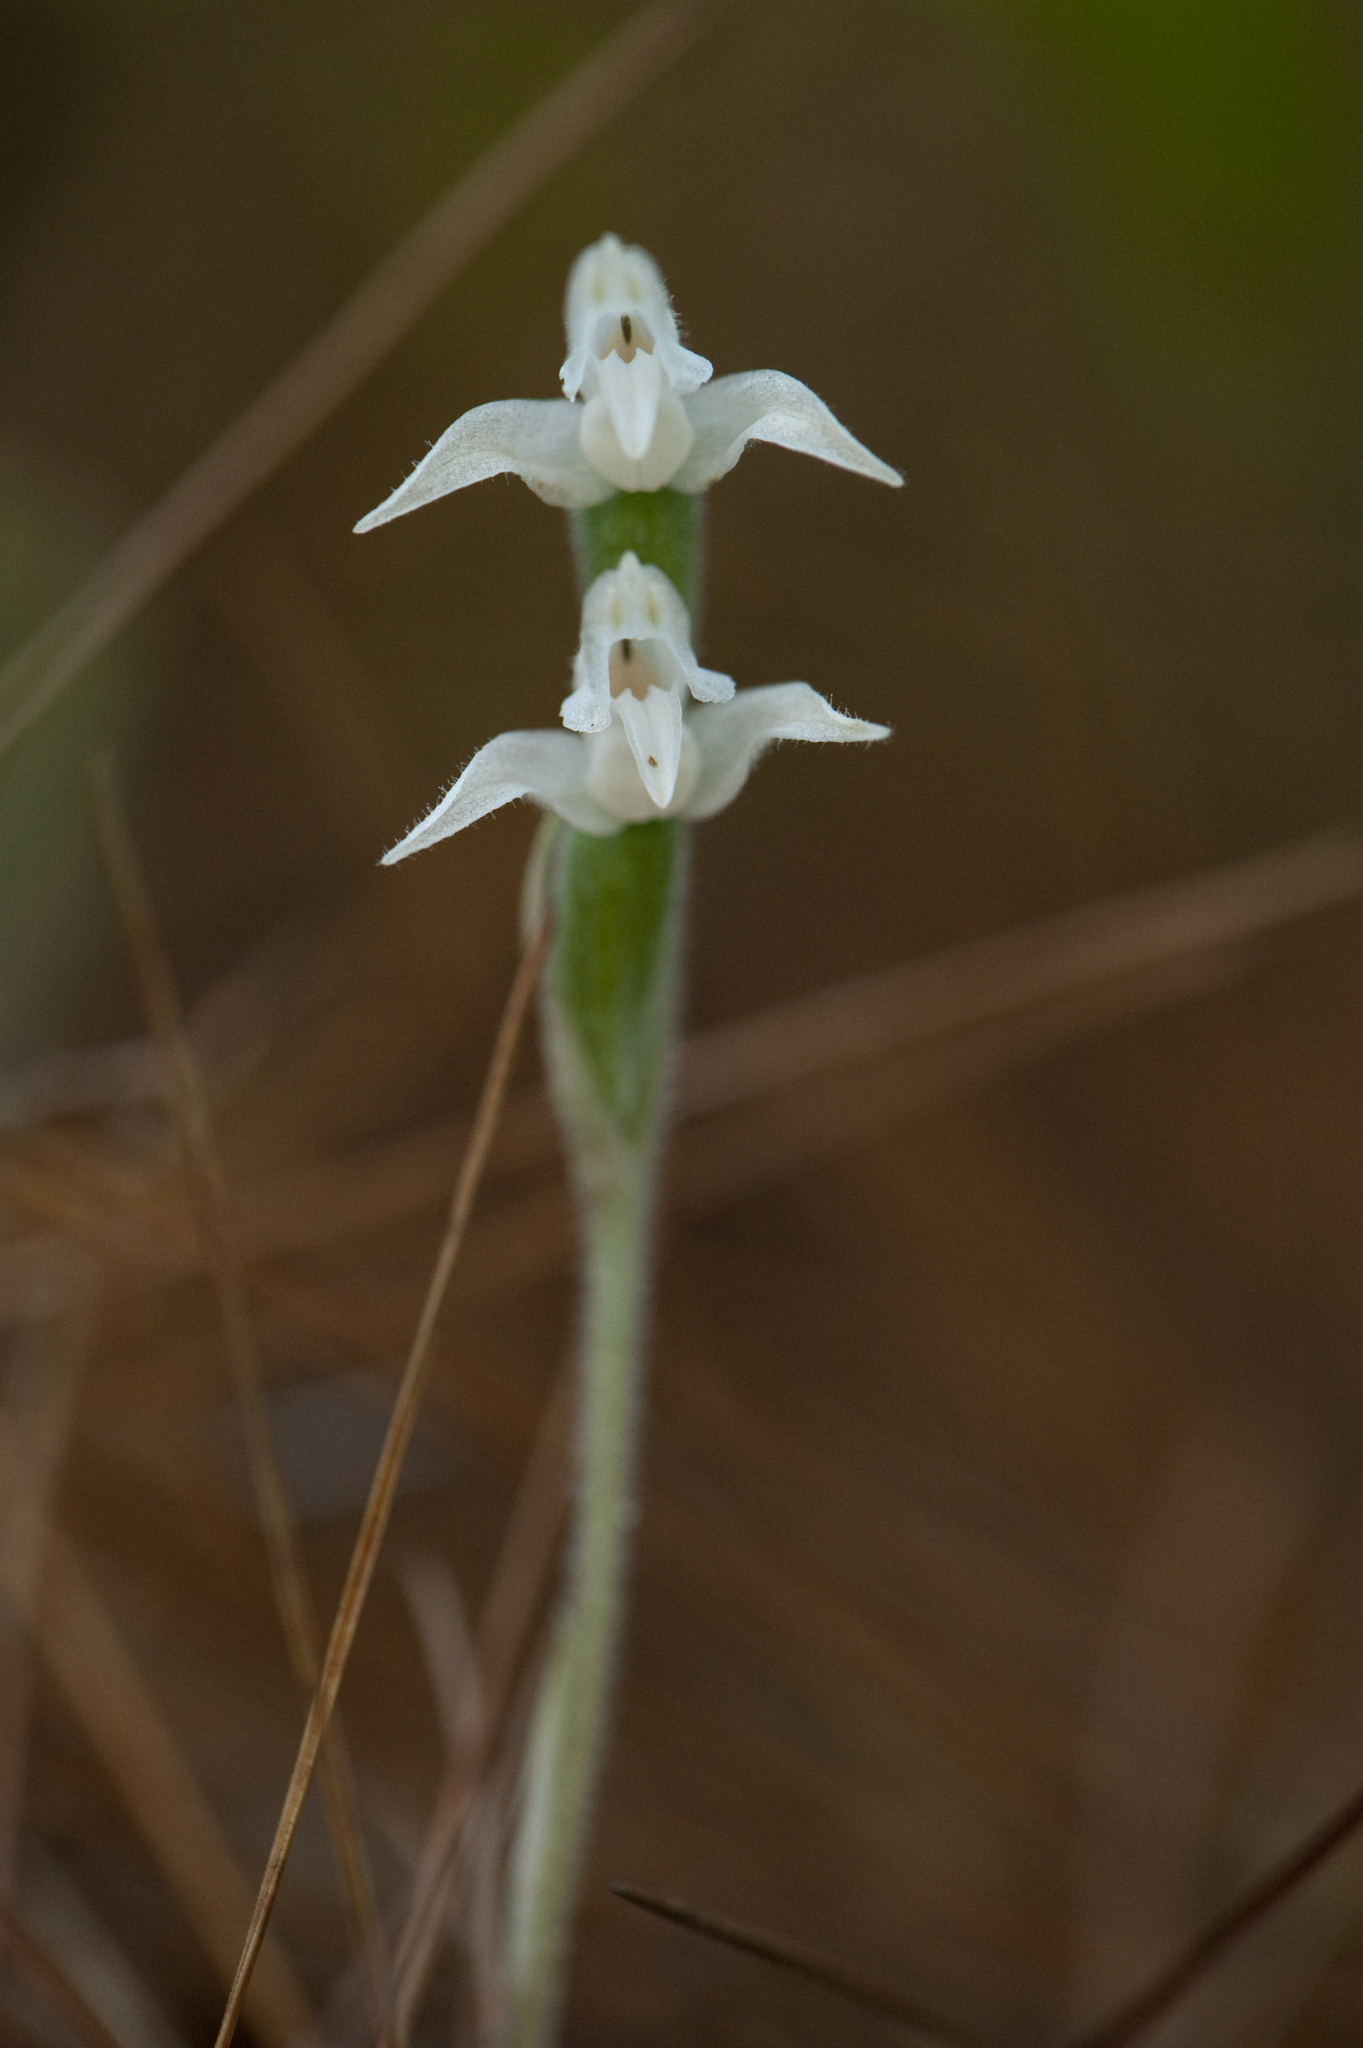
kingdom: Plantae
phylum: Tracheophyta
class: Liliopsida
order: Asparagales
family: Orchidaceae
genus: Goodyera
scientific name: Goodyera schlechtendaliana
